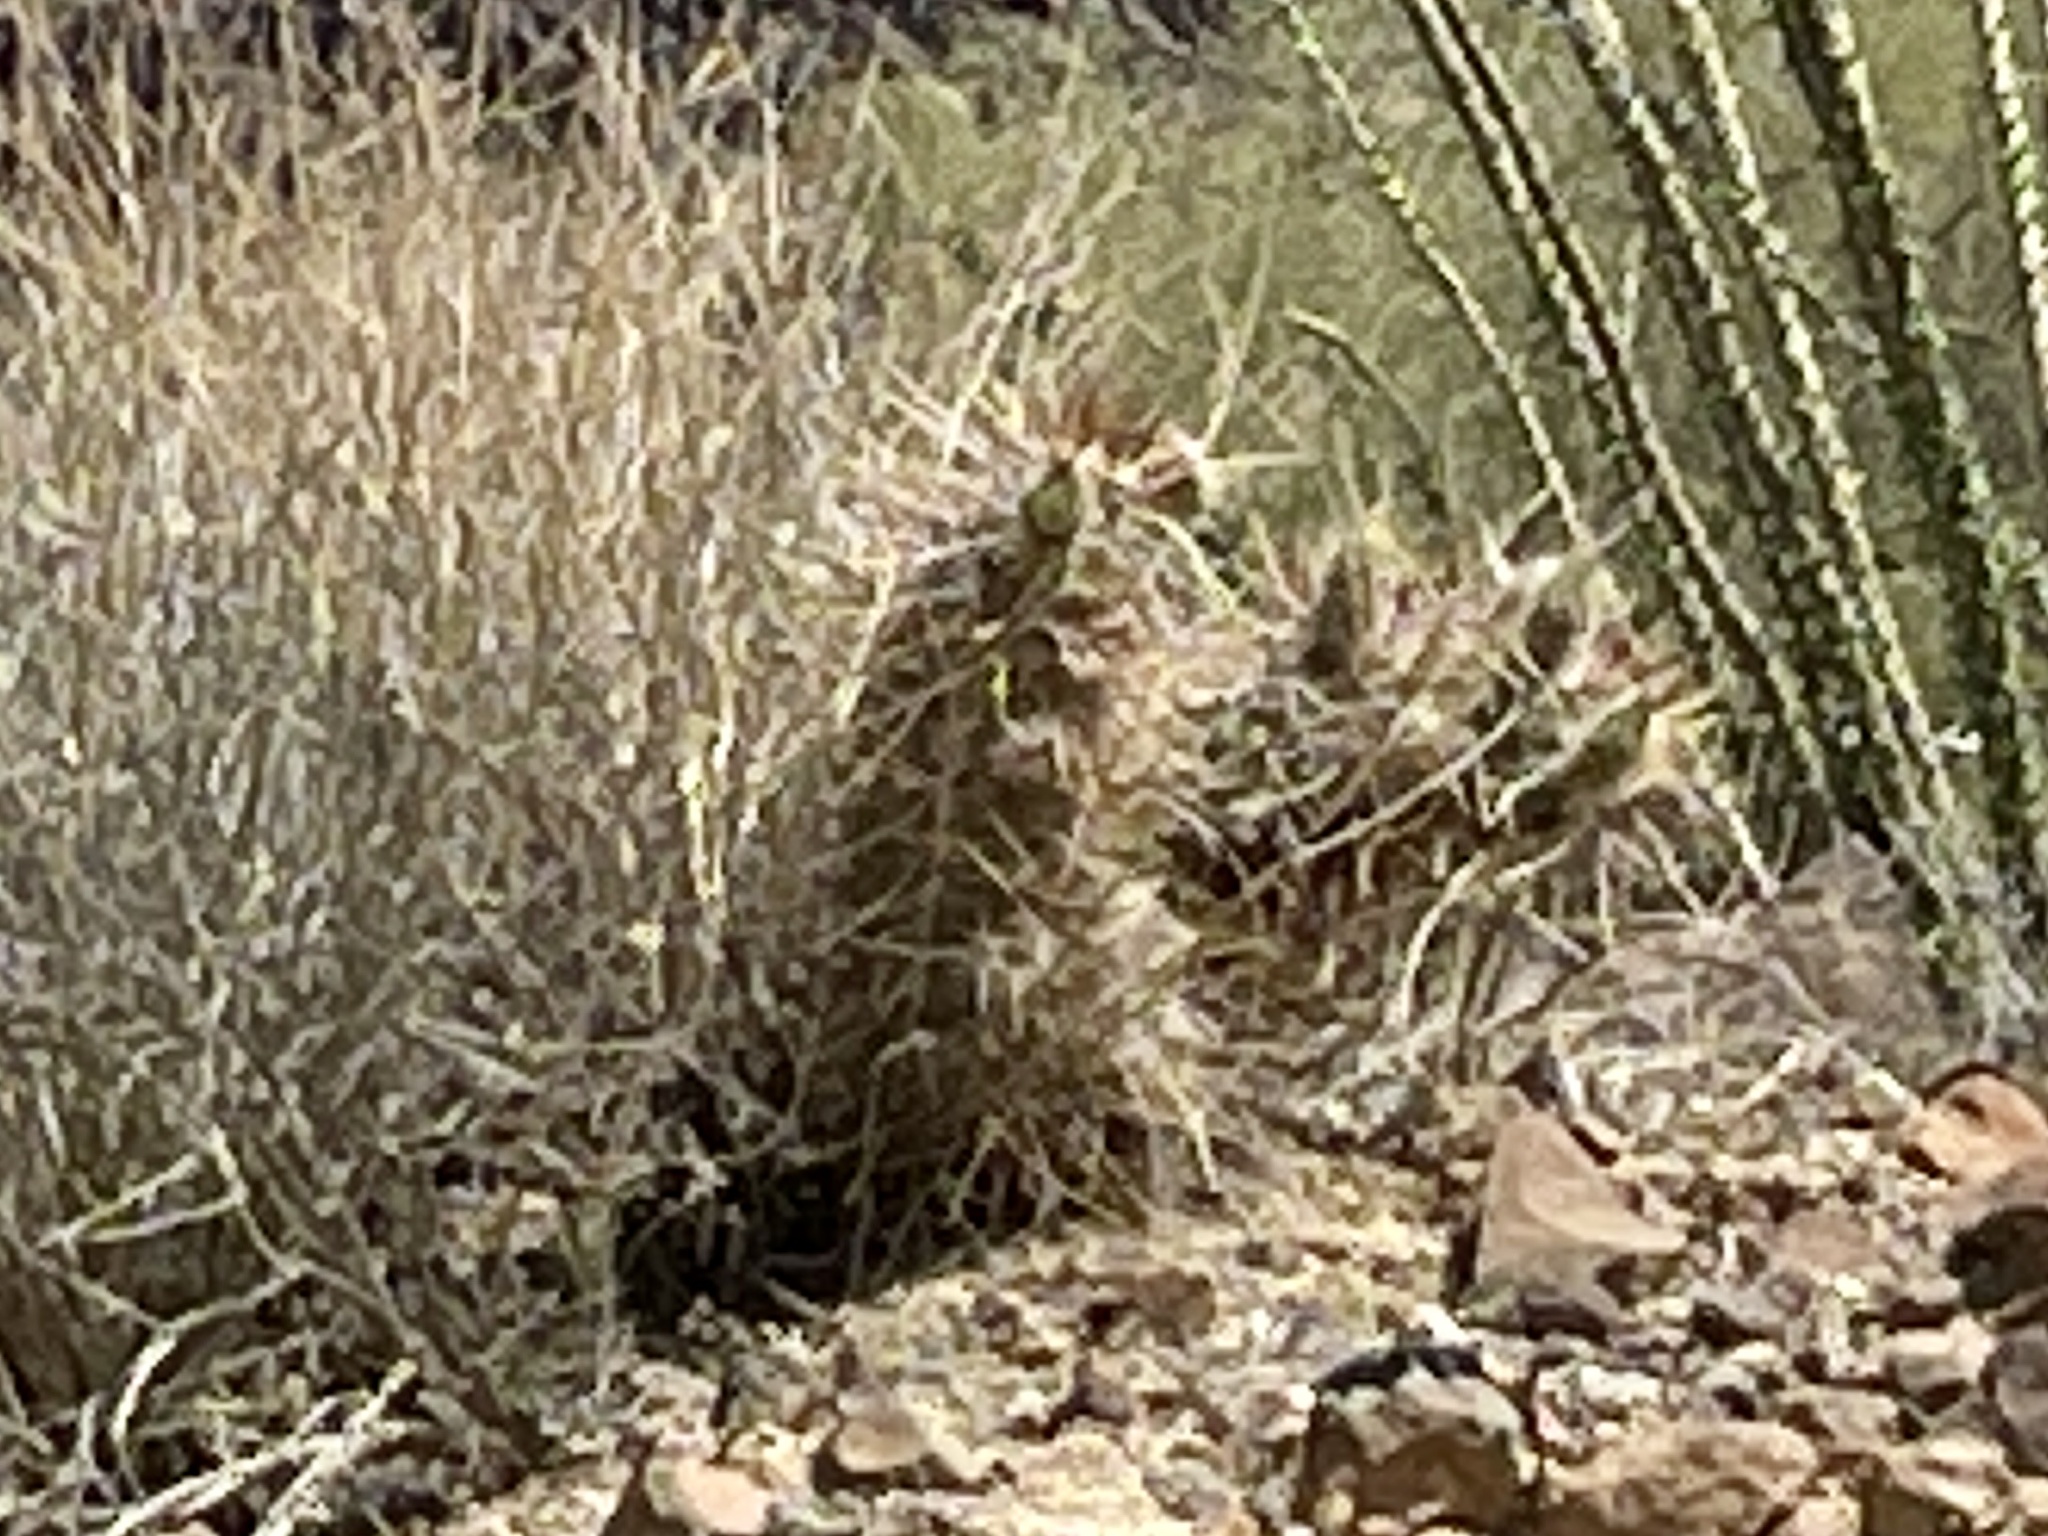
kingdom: Plantae
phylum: Tracheophyta
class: Magnoliopsida
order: Caryophyllales
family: Cactaceae
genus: Echinocereus
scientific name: Echinocereus engelmannii
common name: Engelmann's hedgehog cactus
